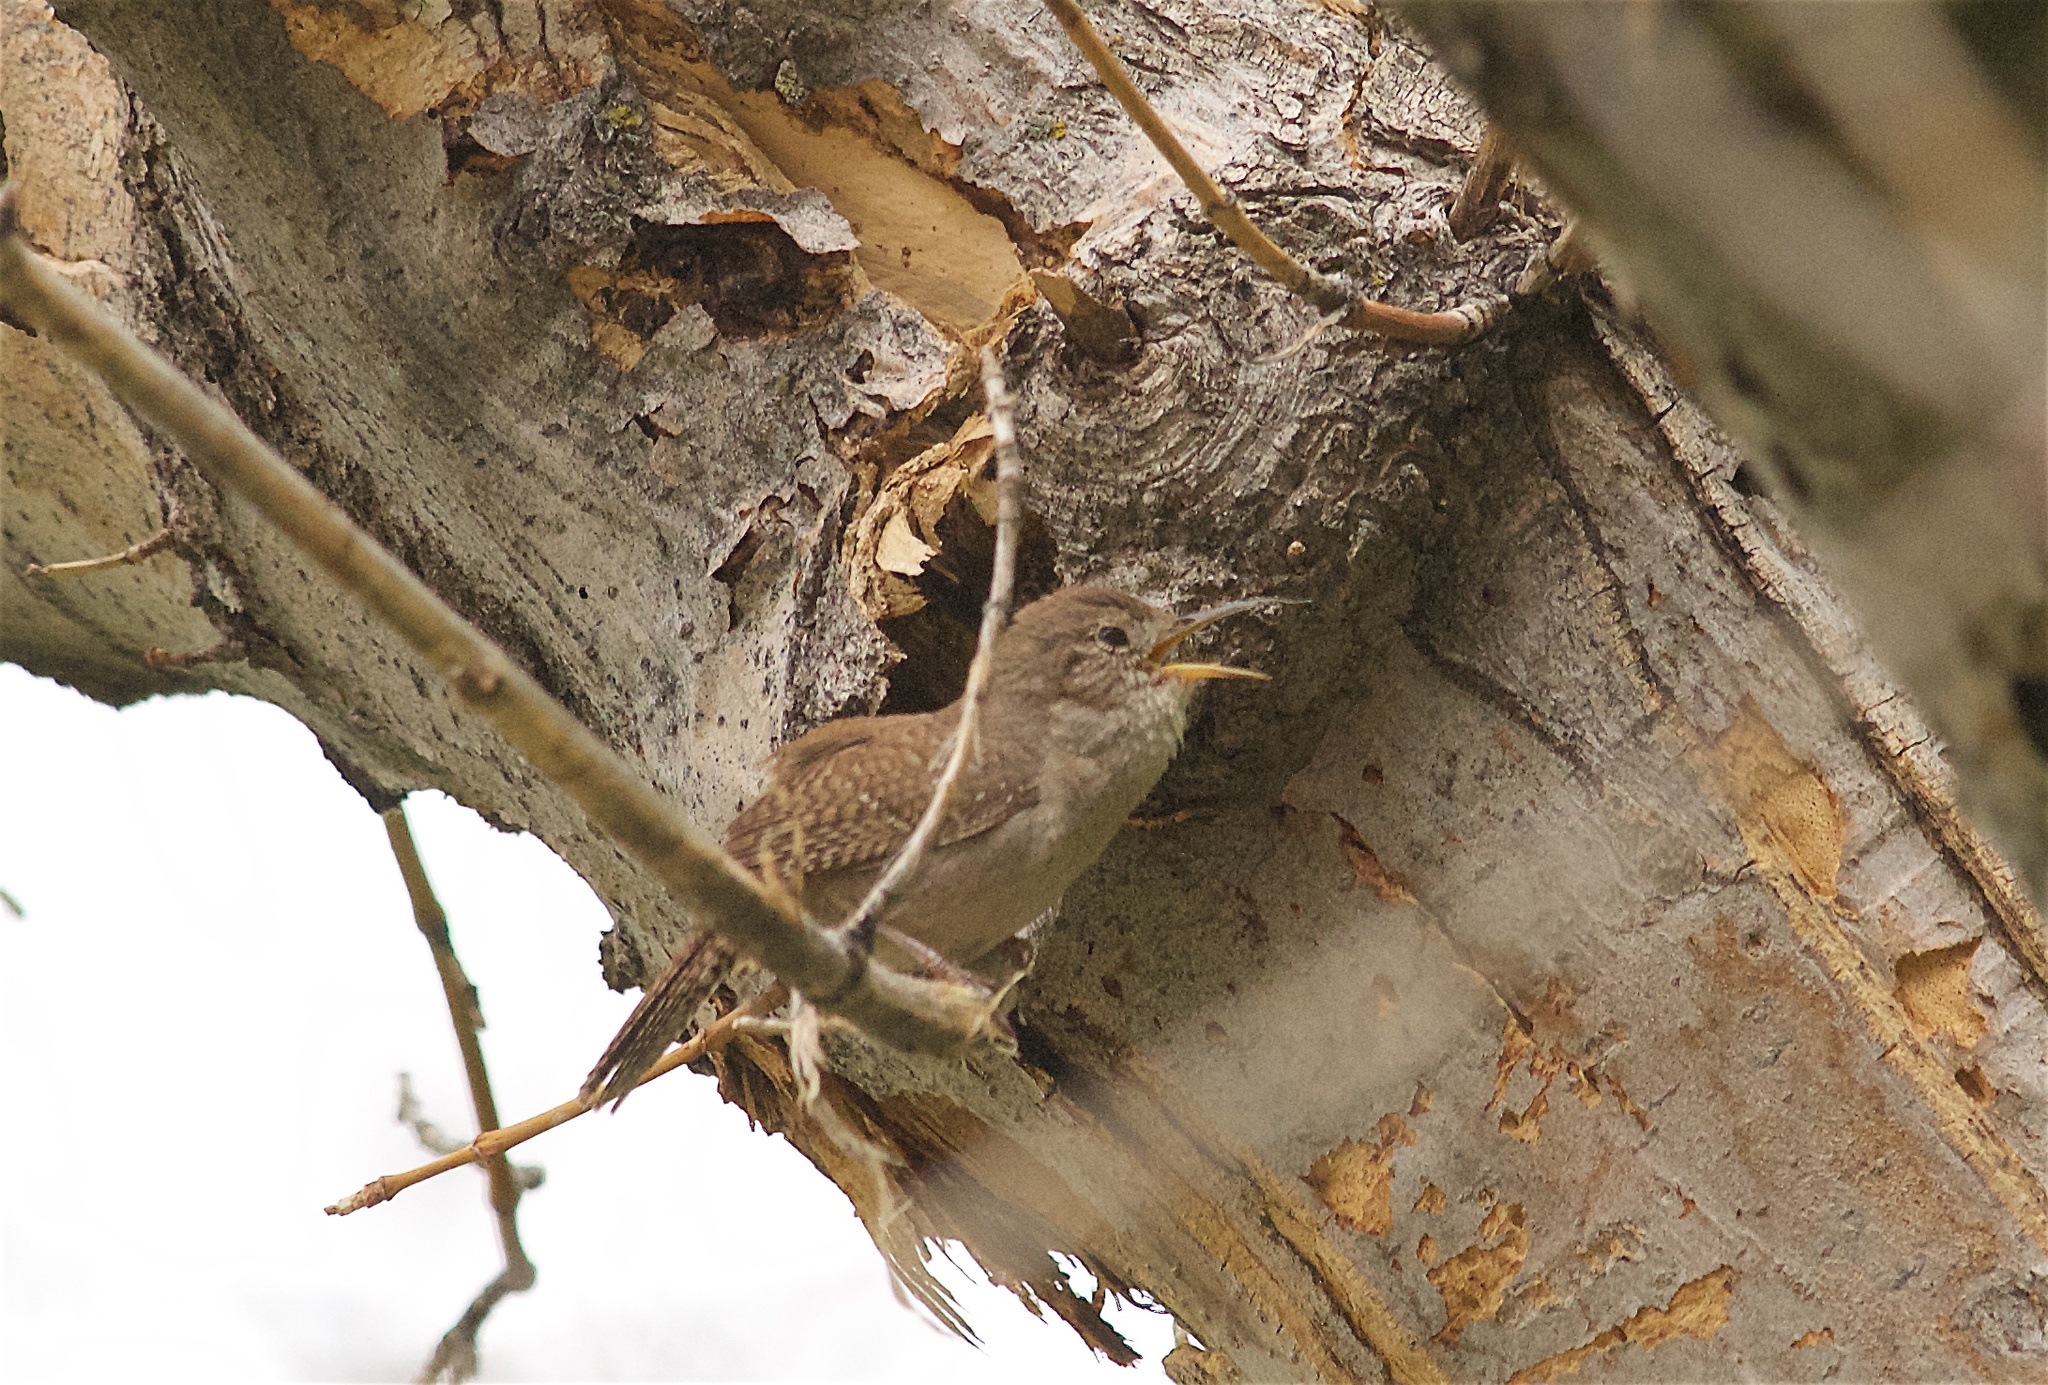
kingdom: Animalia
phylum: Chordata
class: Aves
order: Passeriformes
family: Troglodytidae
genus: Troglodytes
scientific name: Troglodytes aedon
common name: House wren
